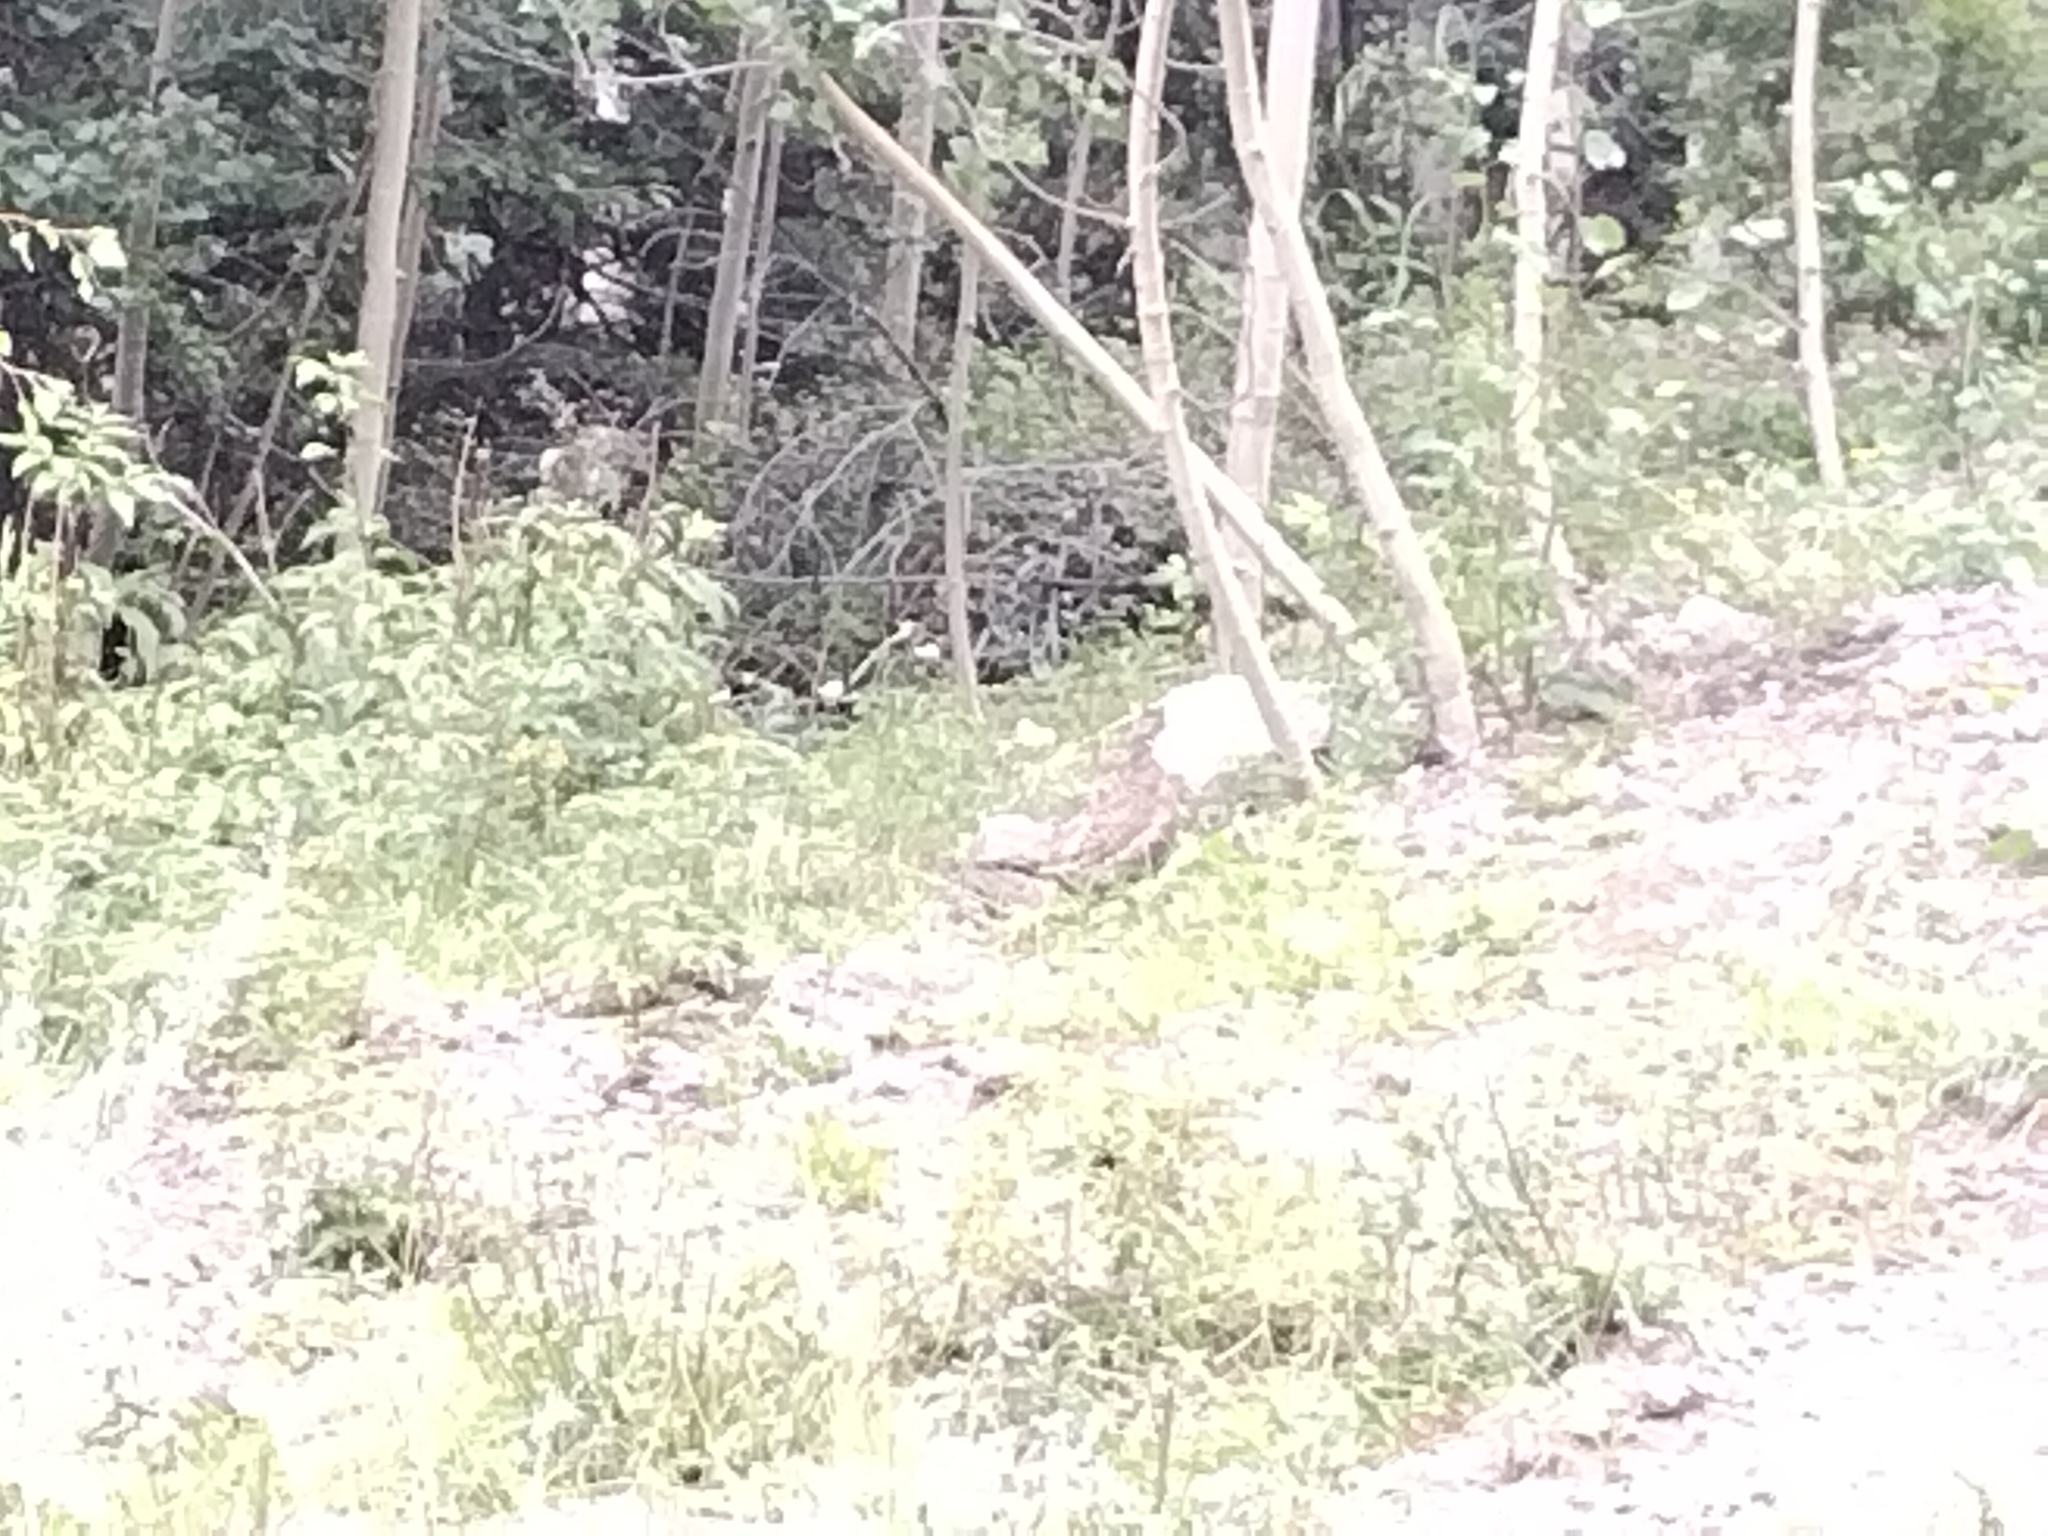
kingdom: Animalia
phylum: Chordata
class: Aves
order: Galliformes
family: Phasianidae
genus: Dendragapus
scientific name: Dendragapus obscurus
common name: Dusky grouse
